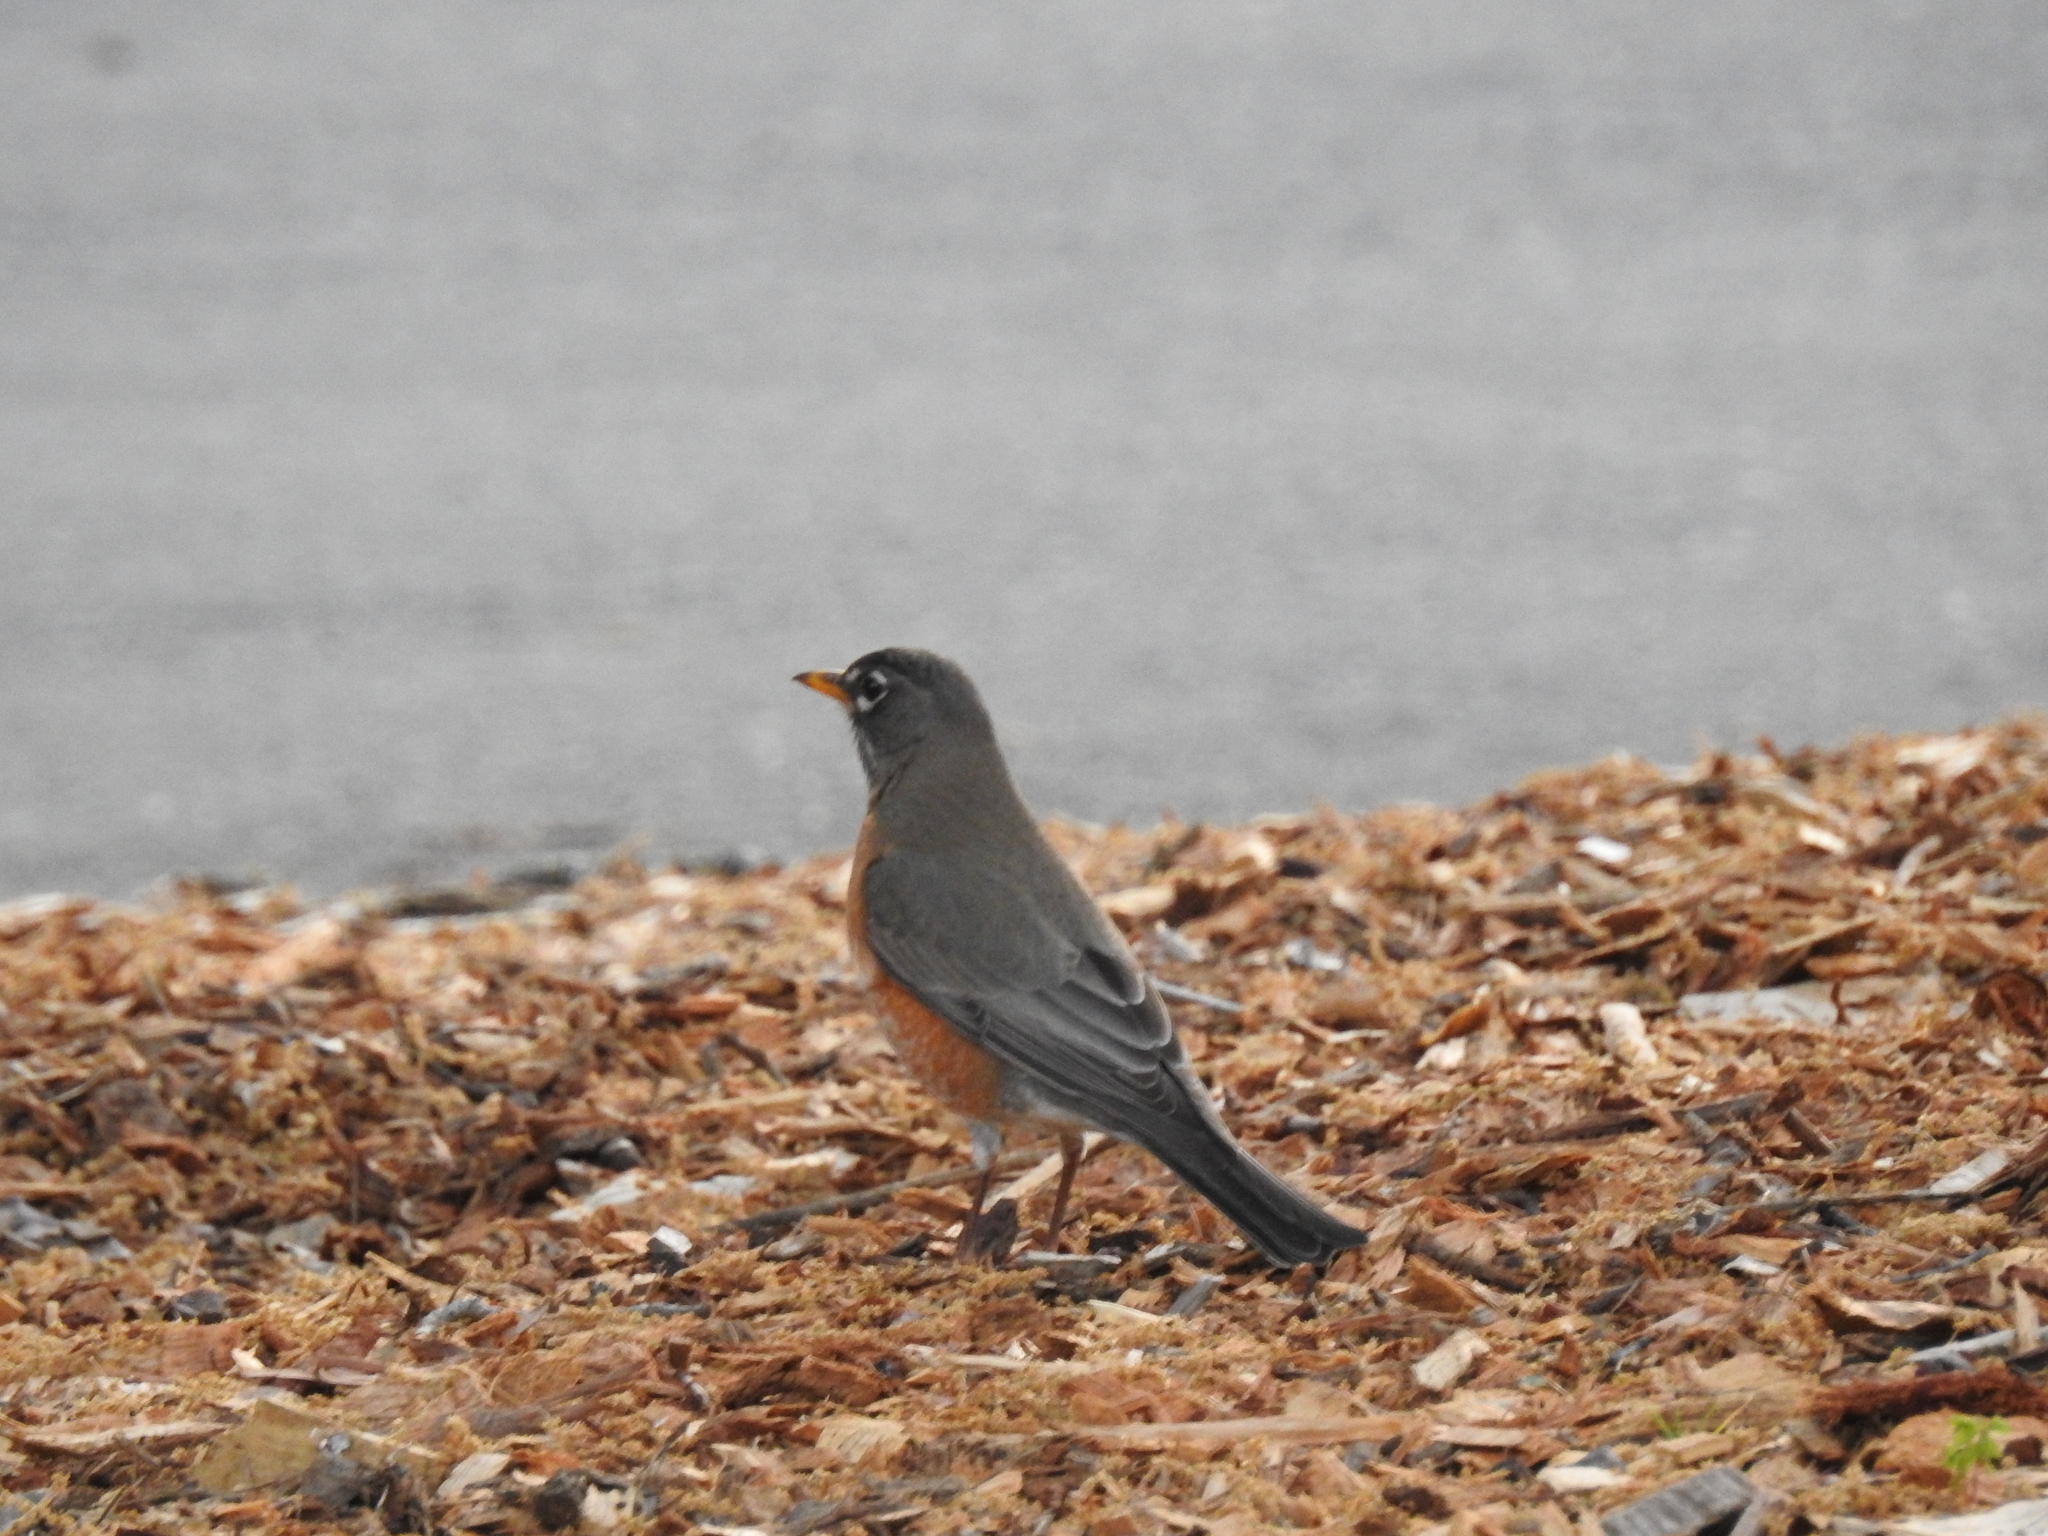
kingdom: Animalia
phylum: Chordata
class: Aves
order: Passeriformes
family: Turdidae
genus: Turdus
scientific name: Turdus migratorius
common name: American robin
